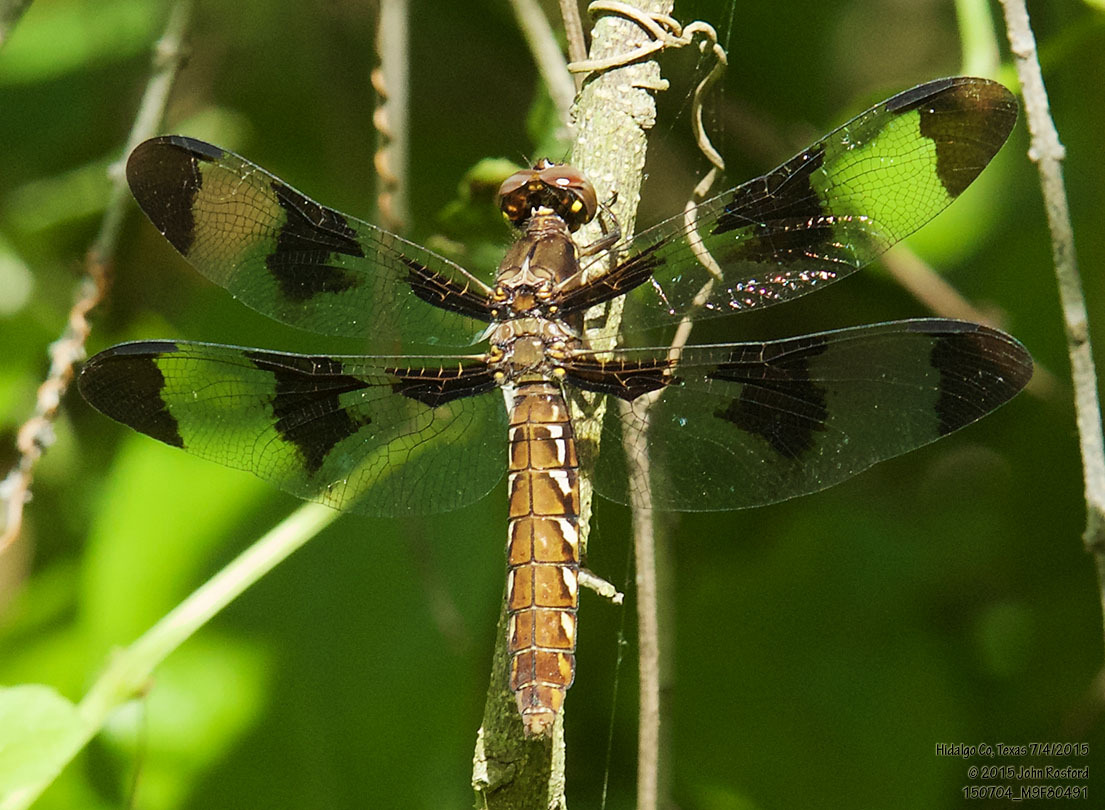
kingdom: Animalia
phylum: Arthropoda
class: Insecta
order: Odonata
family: Libellulidae
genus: Plathemis
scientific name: Plathemis lydia
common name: Common whitetail
